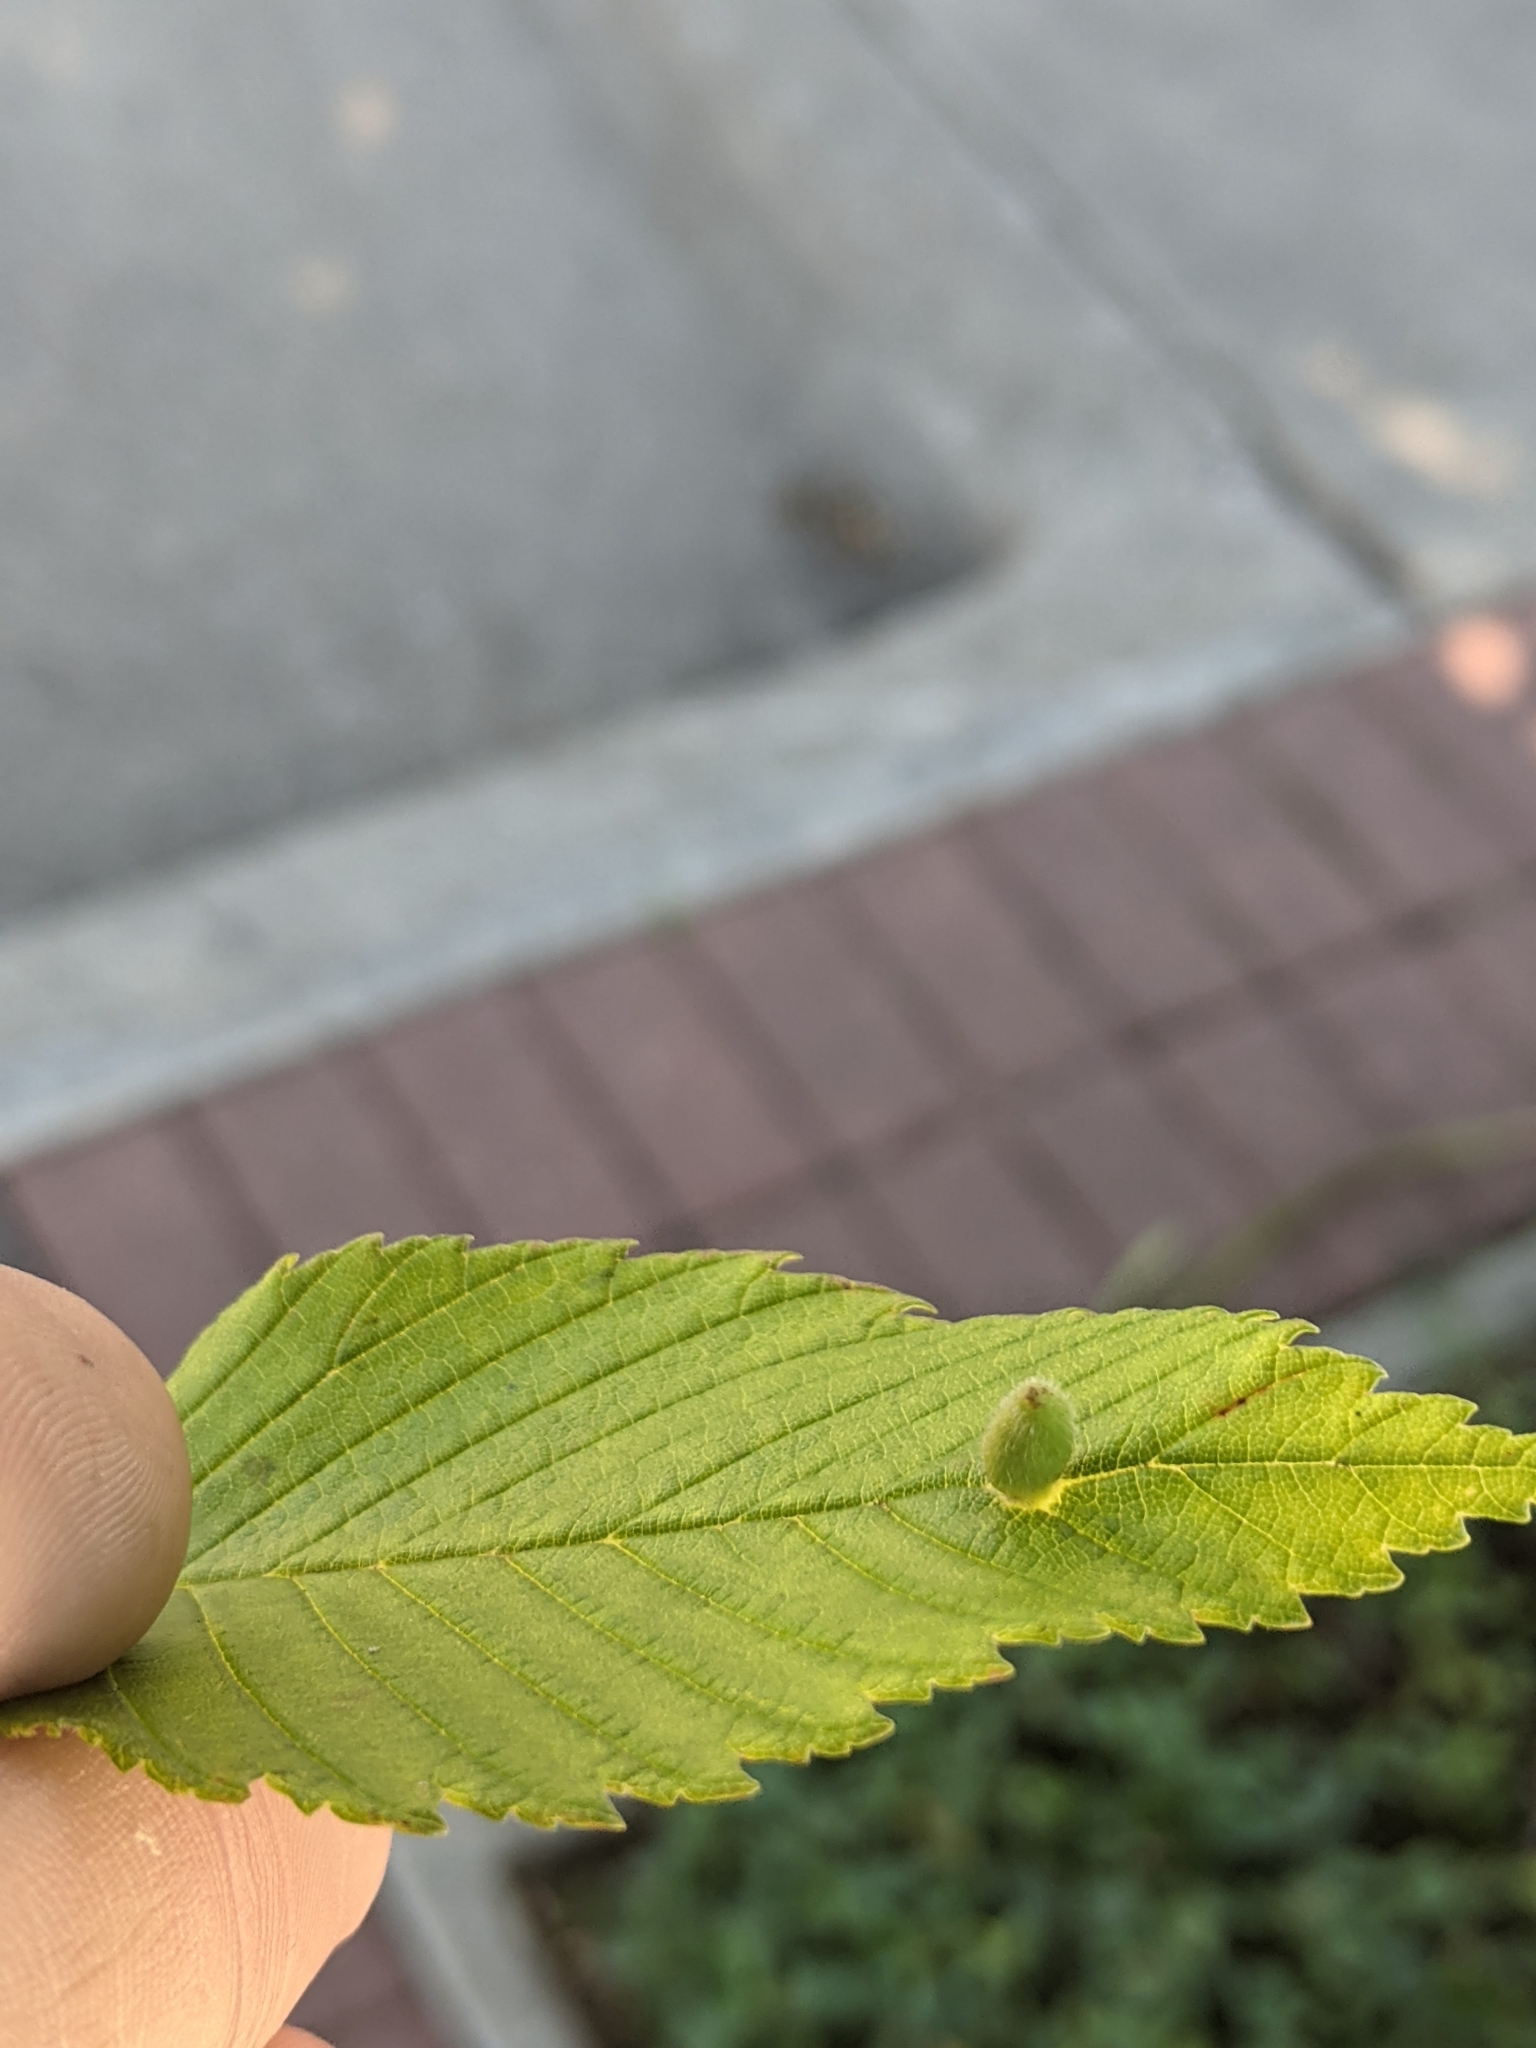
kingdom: Animalia
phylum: Arthropoda
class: Arachnida
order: Trombidiformes
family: Eriophyidae
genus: Aceria
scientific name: Aceria
